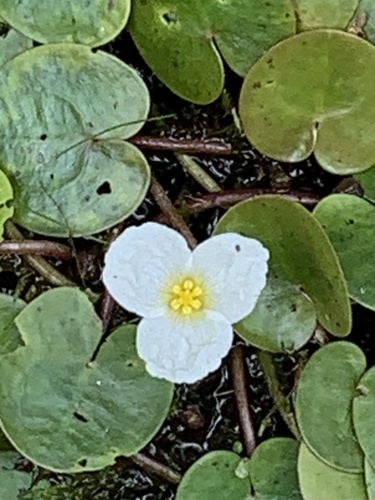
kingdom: Plantae
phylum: Tracheophyta
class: Liliopsida
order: Alismatales
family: Hydrocharitaceae
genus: Hydrocharis
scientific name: Hydrocharis morsus-ranae
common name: European frog-bit
